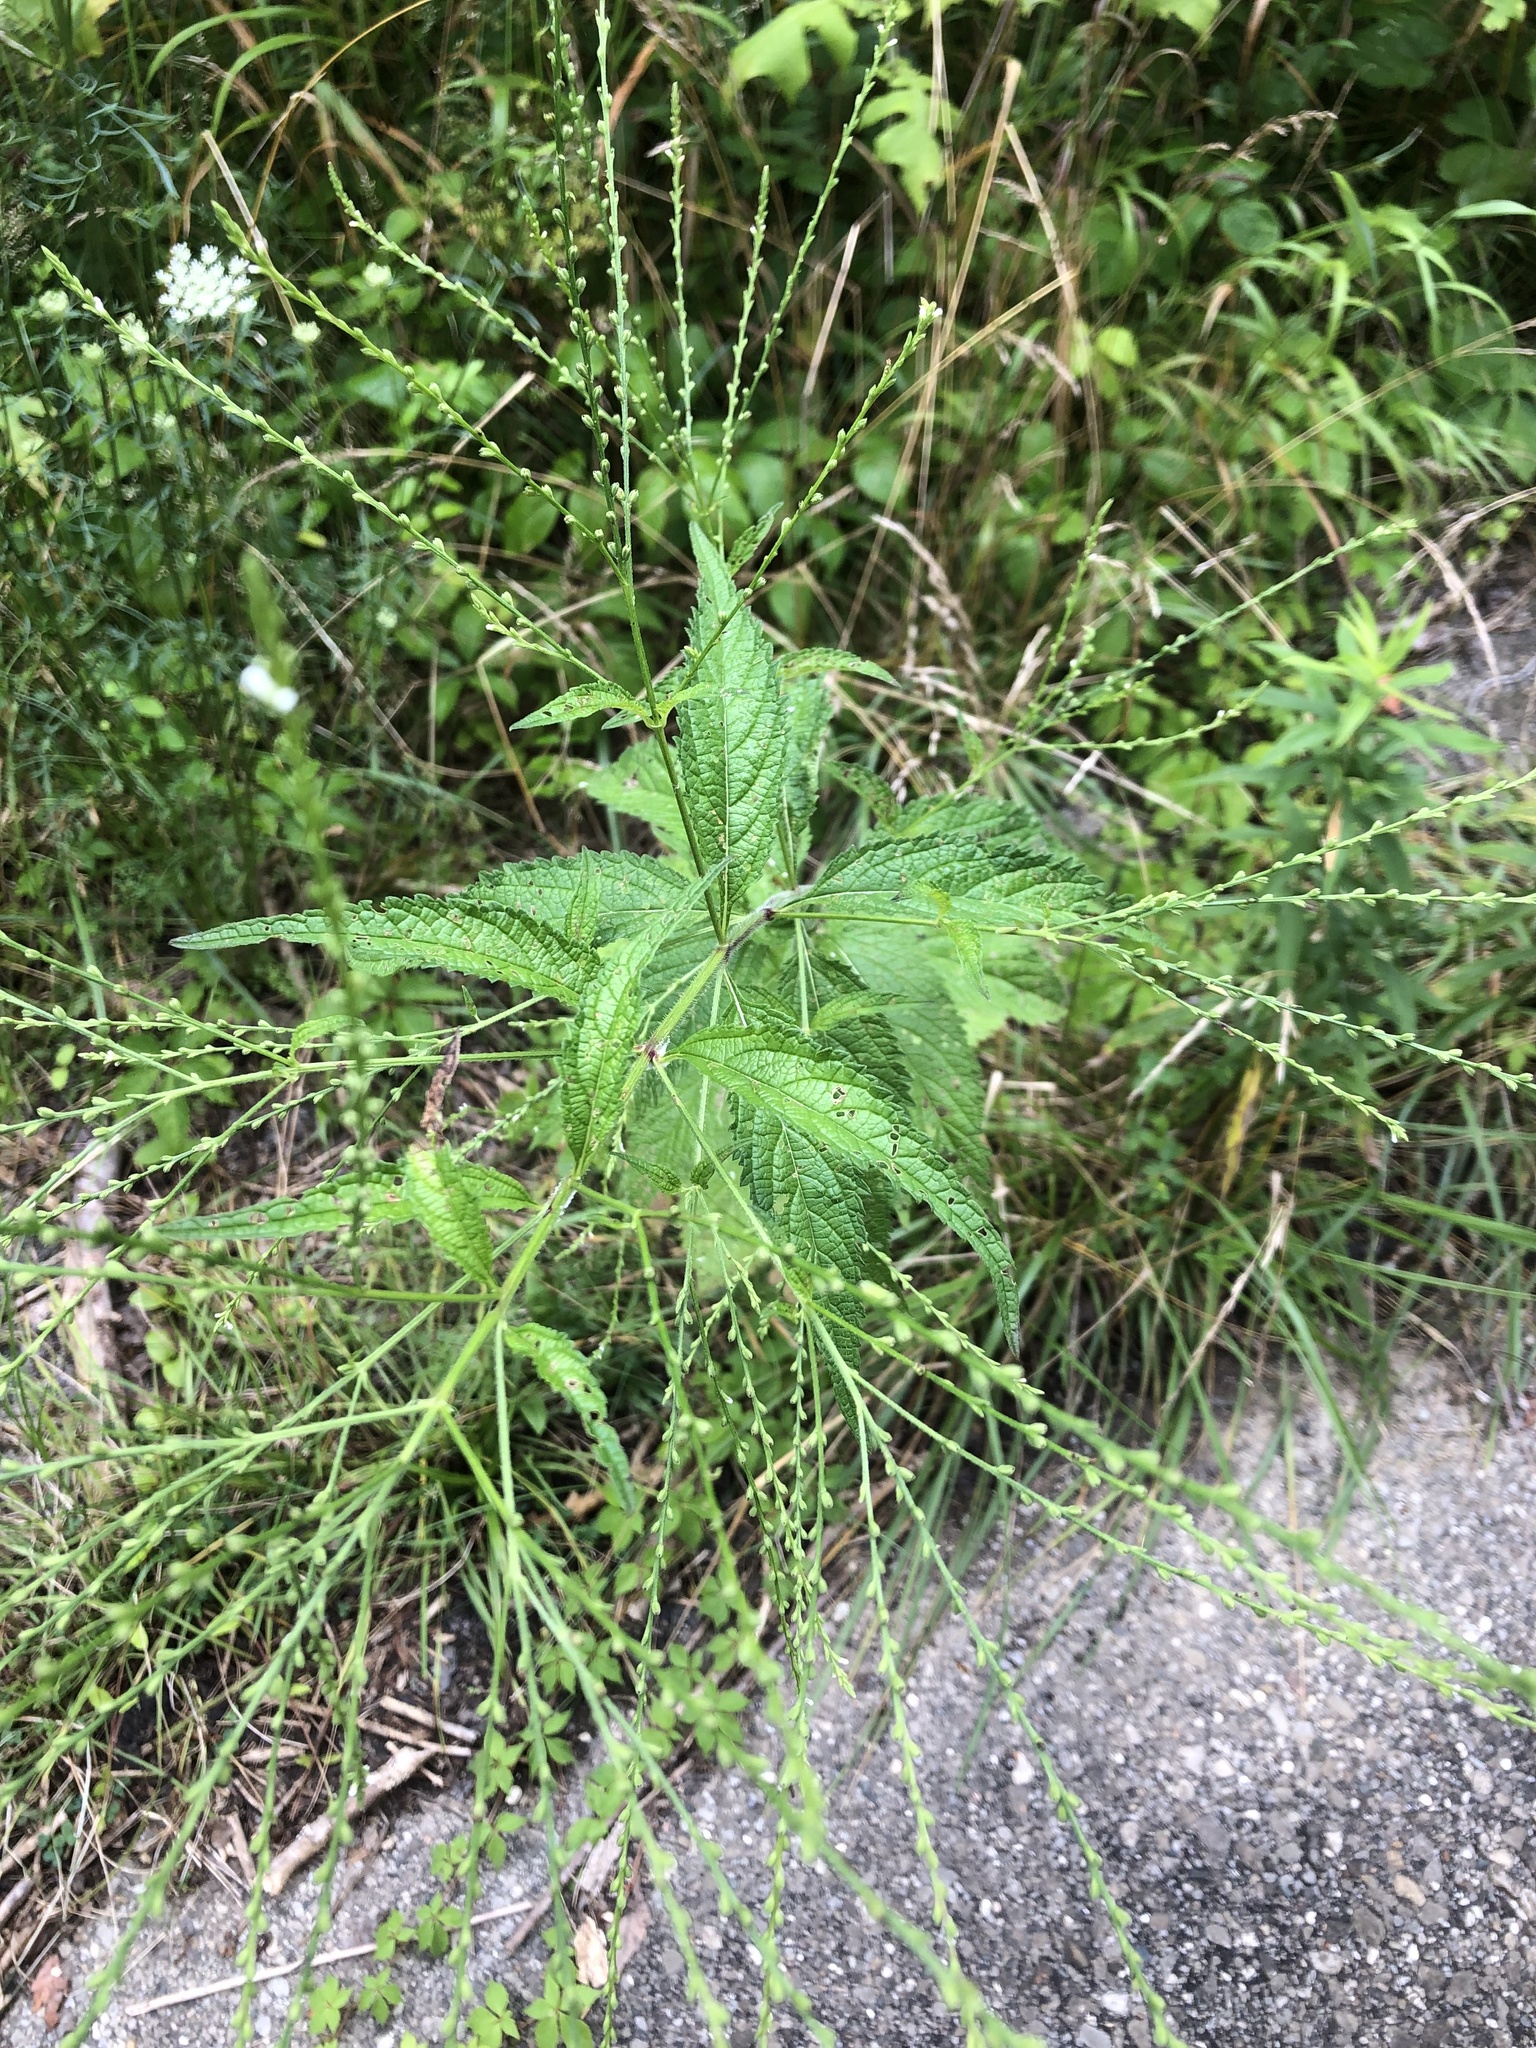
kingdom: Plantae
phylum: Tracheophyta
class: Magnoliopsida
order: Lamiales
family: Verbenaceae
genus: Verbena
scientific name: Verbena urticifolia
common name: Nettle-leaved vervain
